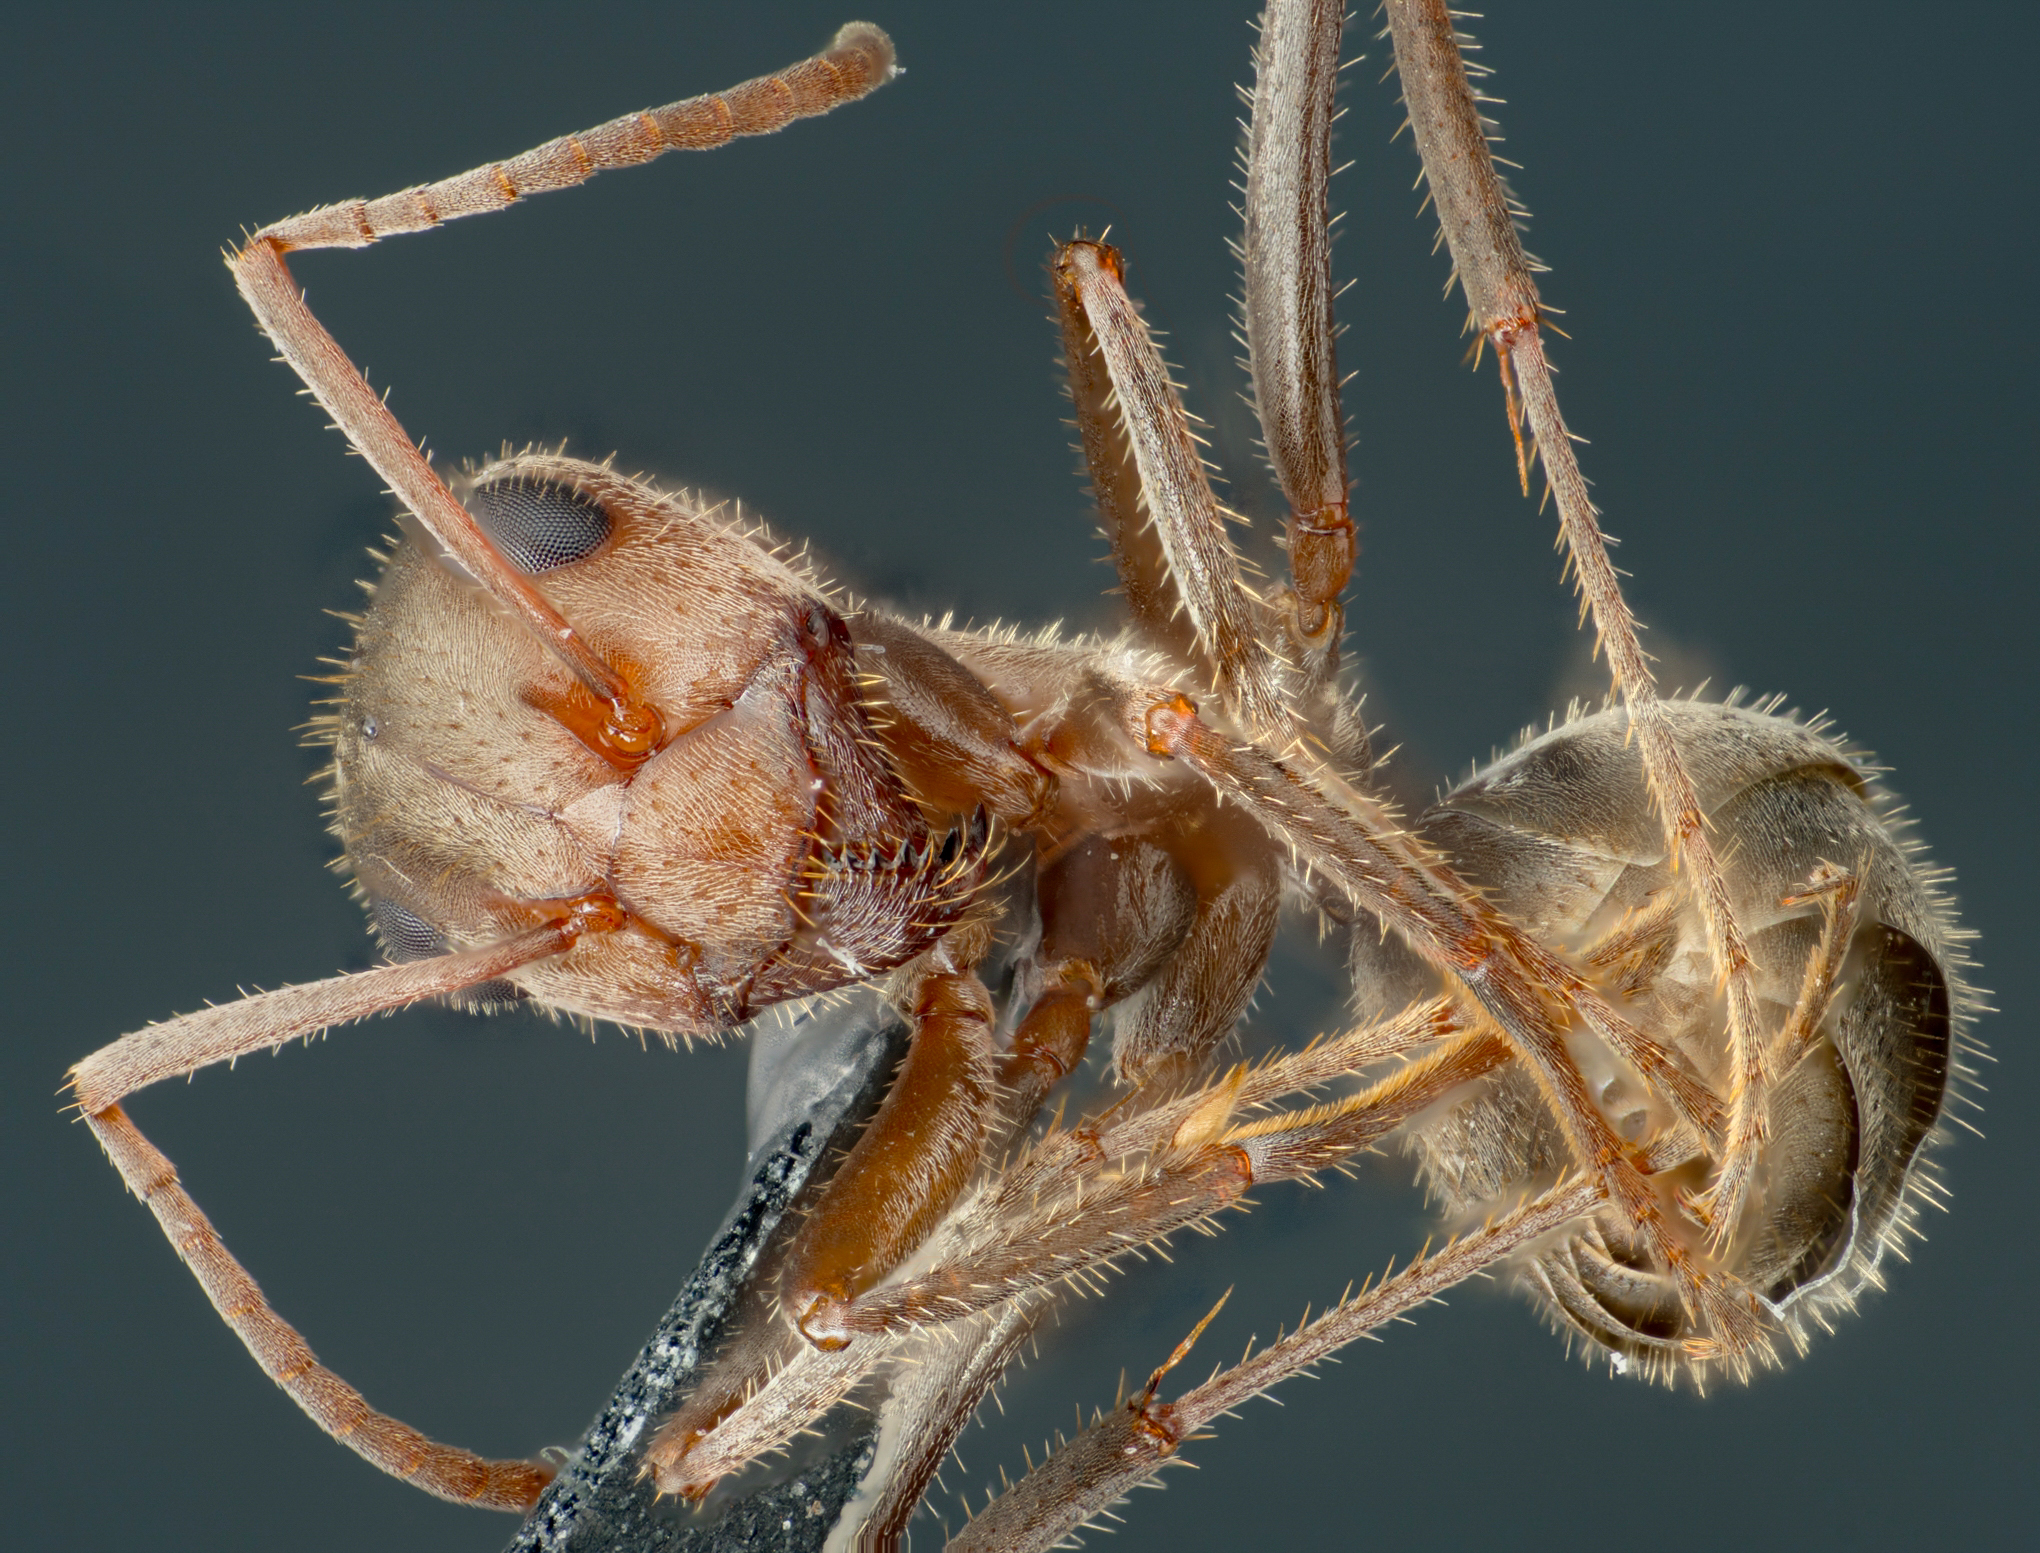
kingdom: Animalia
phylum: Arthropoda
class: Insecta
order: Hymenoptera
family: Formicidae
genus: Formica
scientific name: Formica francoeuri
